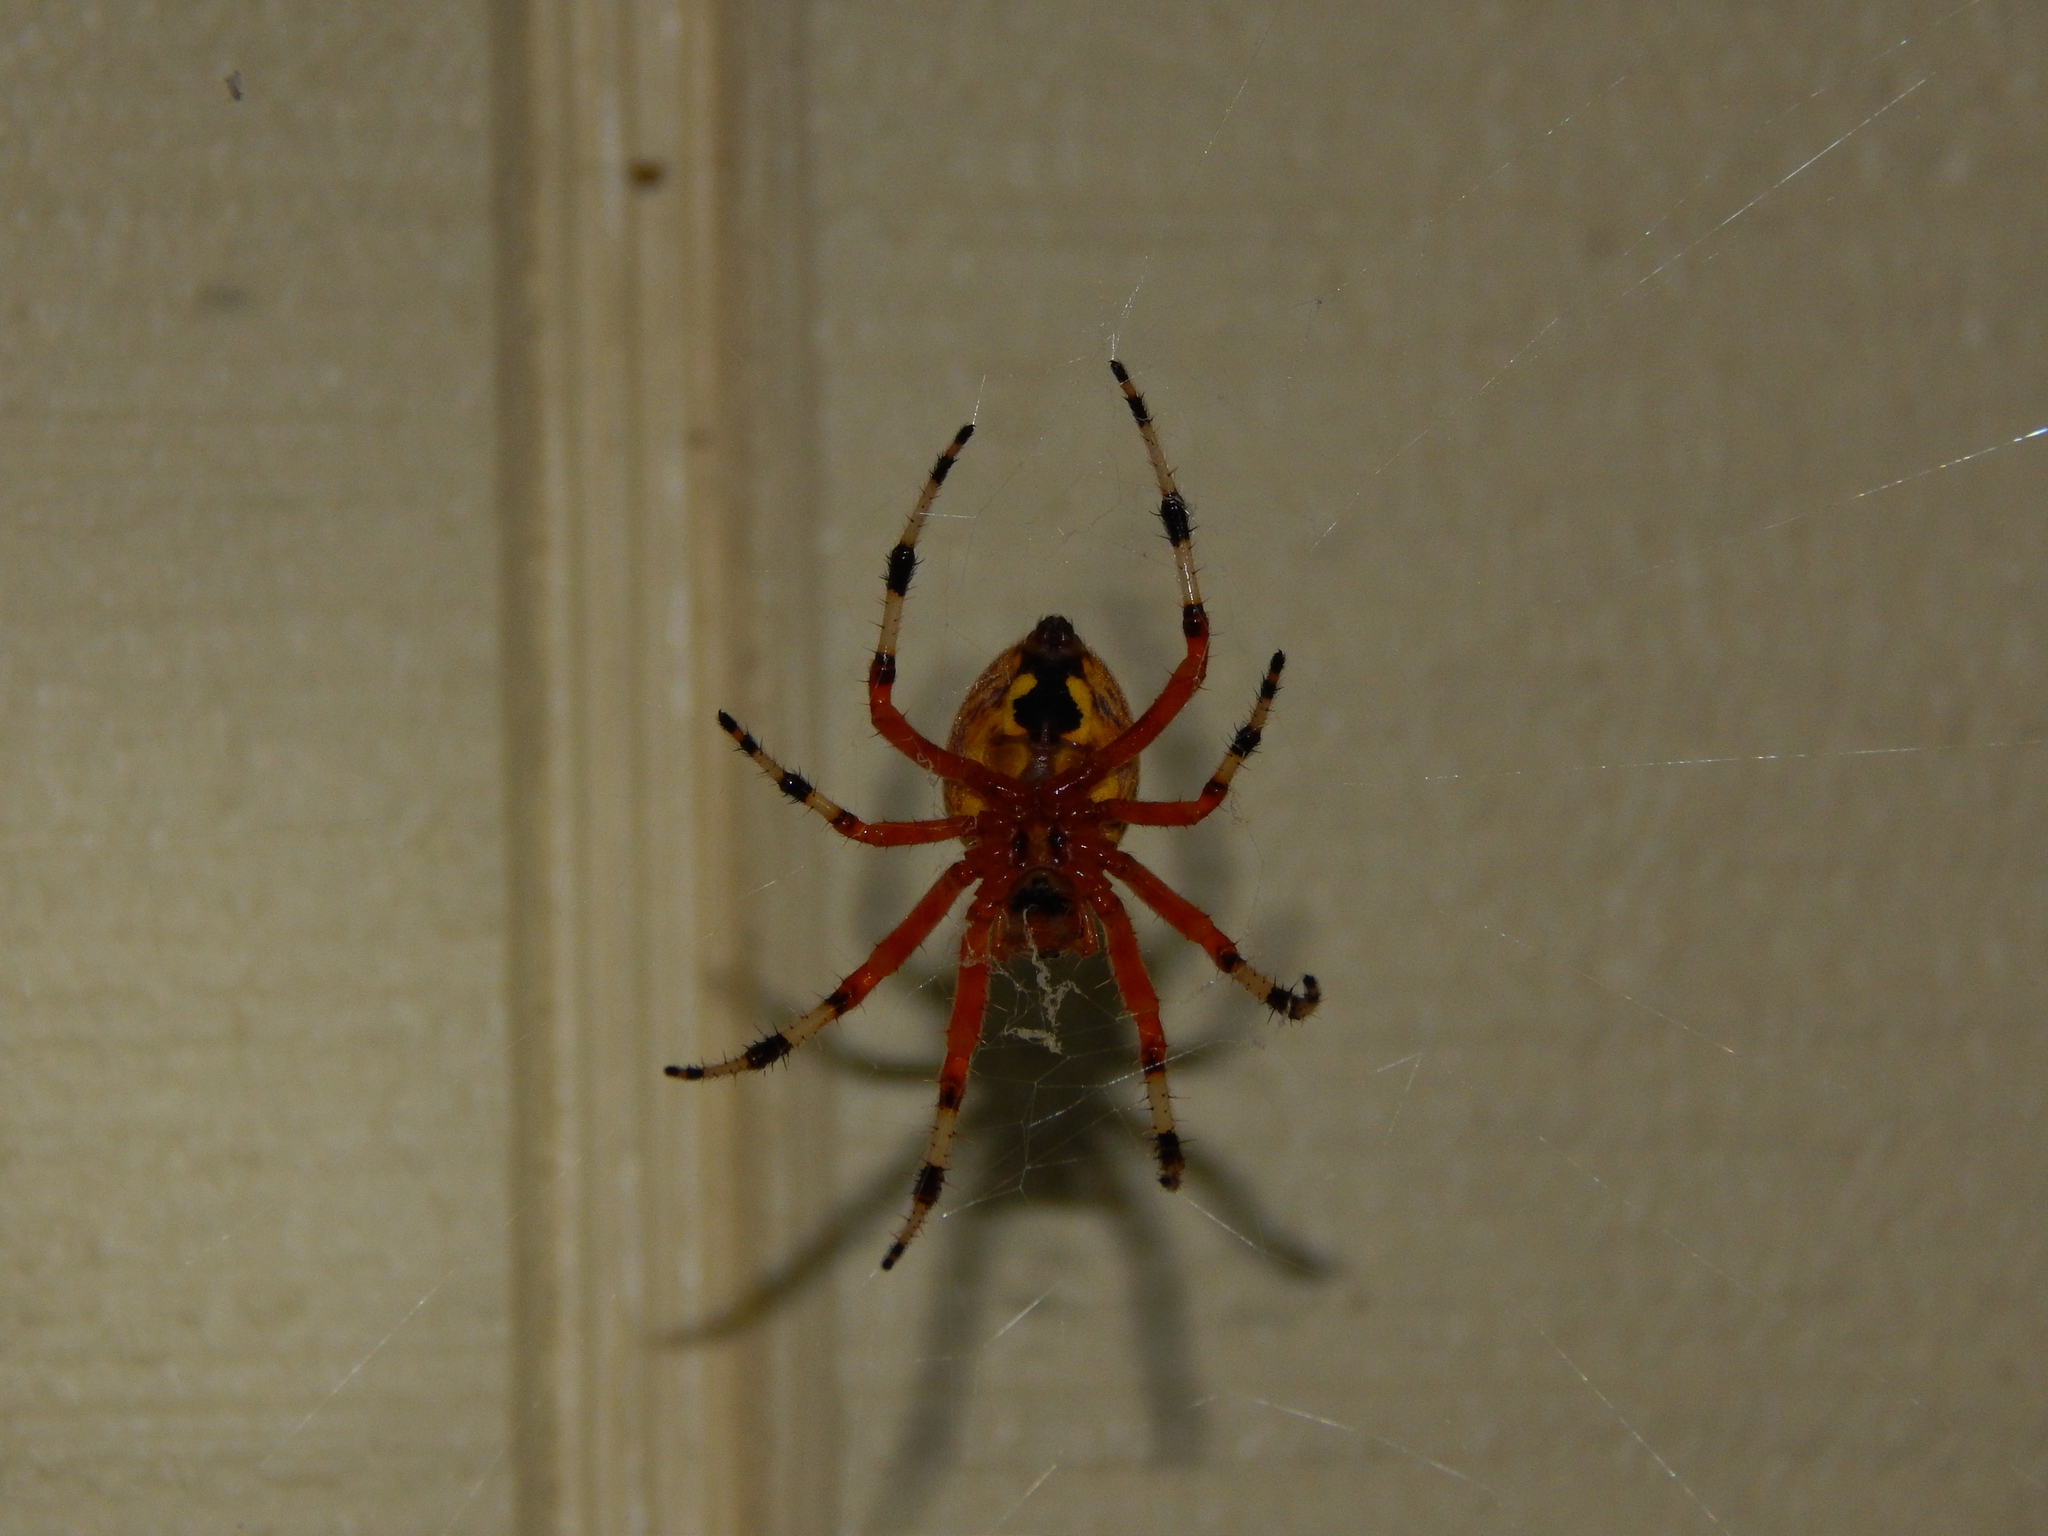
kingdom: Animalia
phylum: Arthropoda
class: Arachnida
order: Araneae
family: Araneidae
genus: Araneus
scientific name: Araneus marmoreus
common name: Marbled orbweaver
